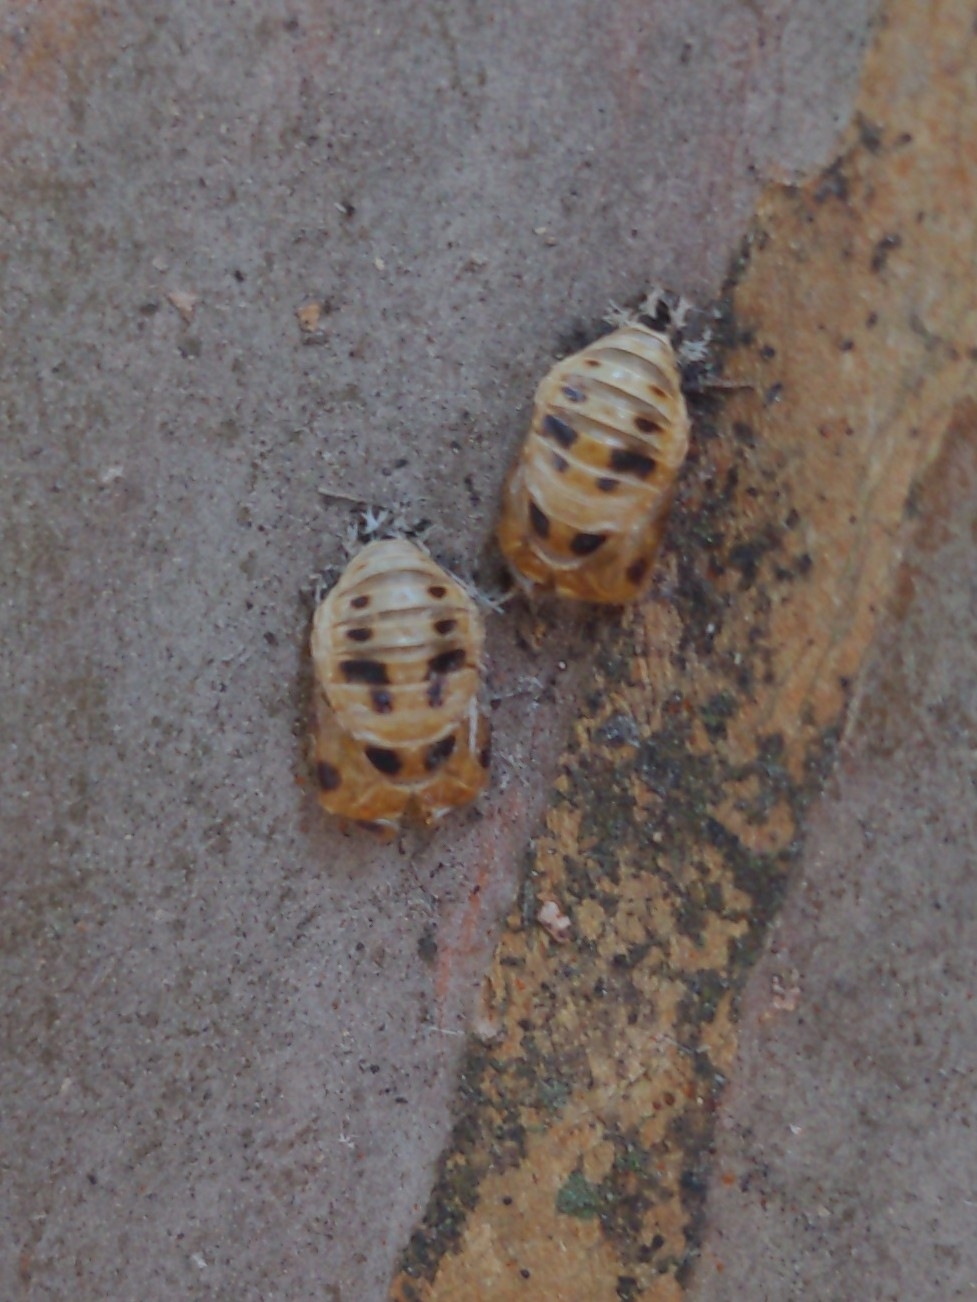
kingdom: Animalia
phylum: Arthropoda
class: Insecta
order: Coleoptera
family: Coccinellidae
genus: Harmonia
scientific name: Harmonia axyridis
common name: Harlequin ladybird
